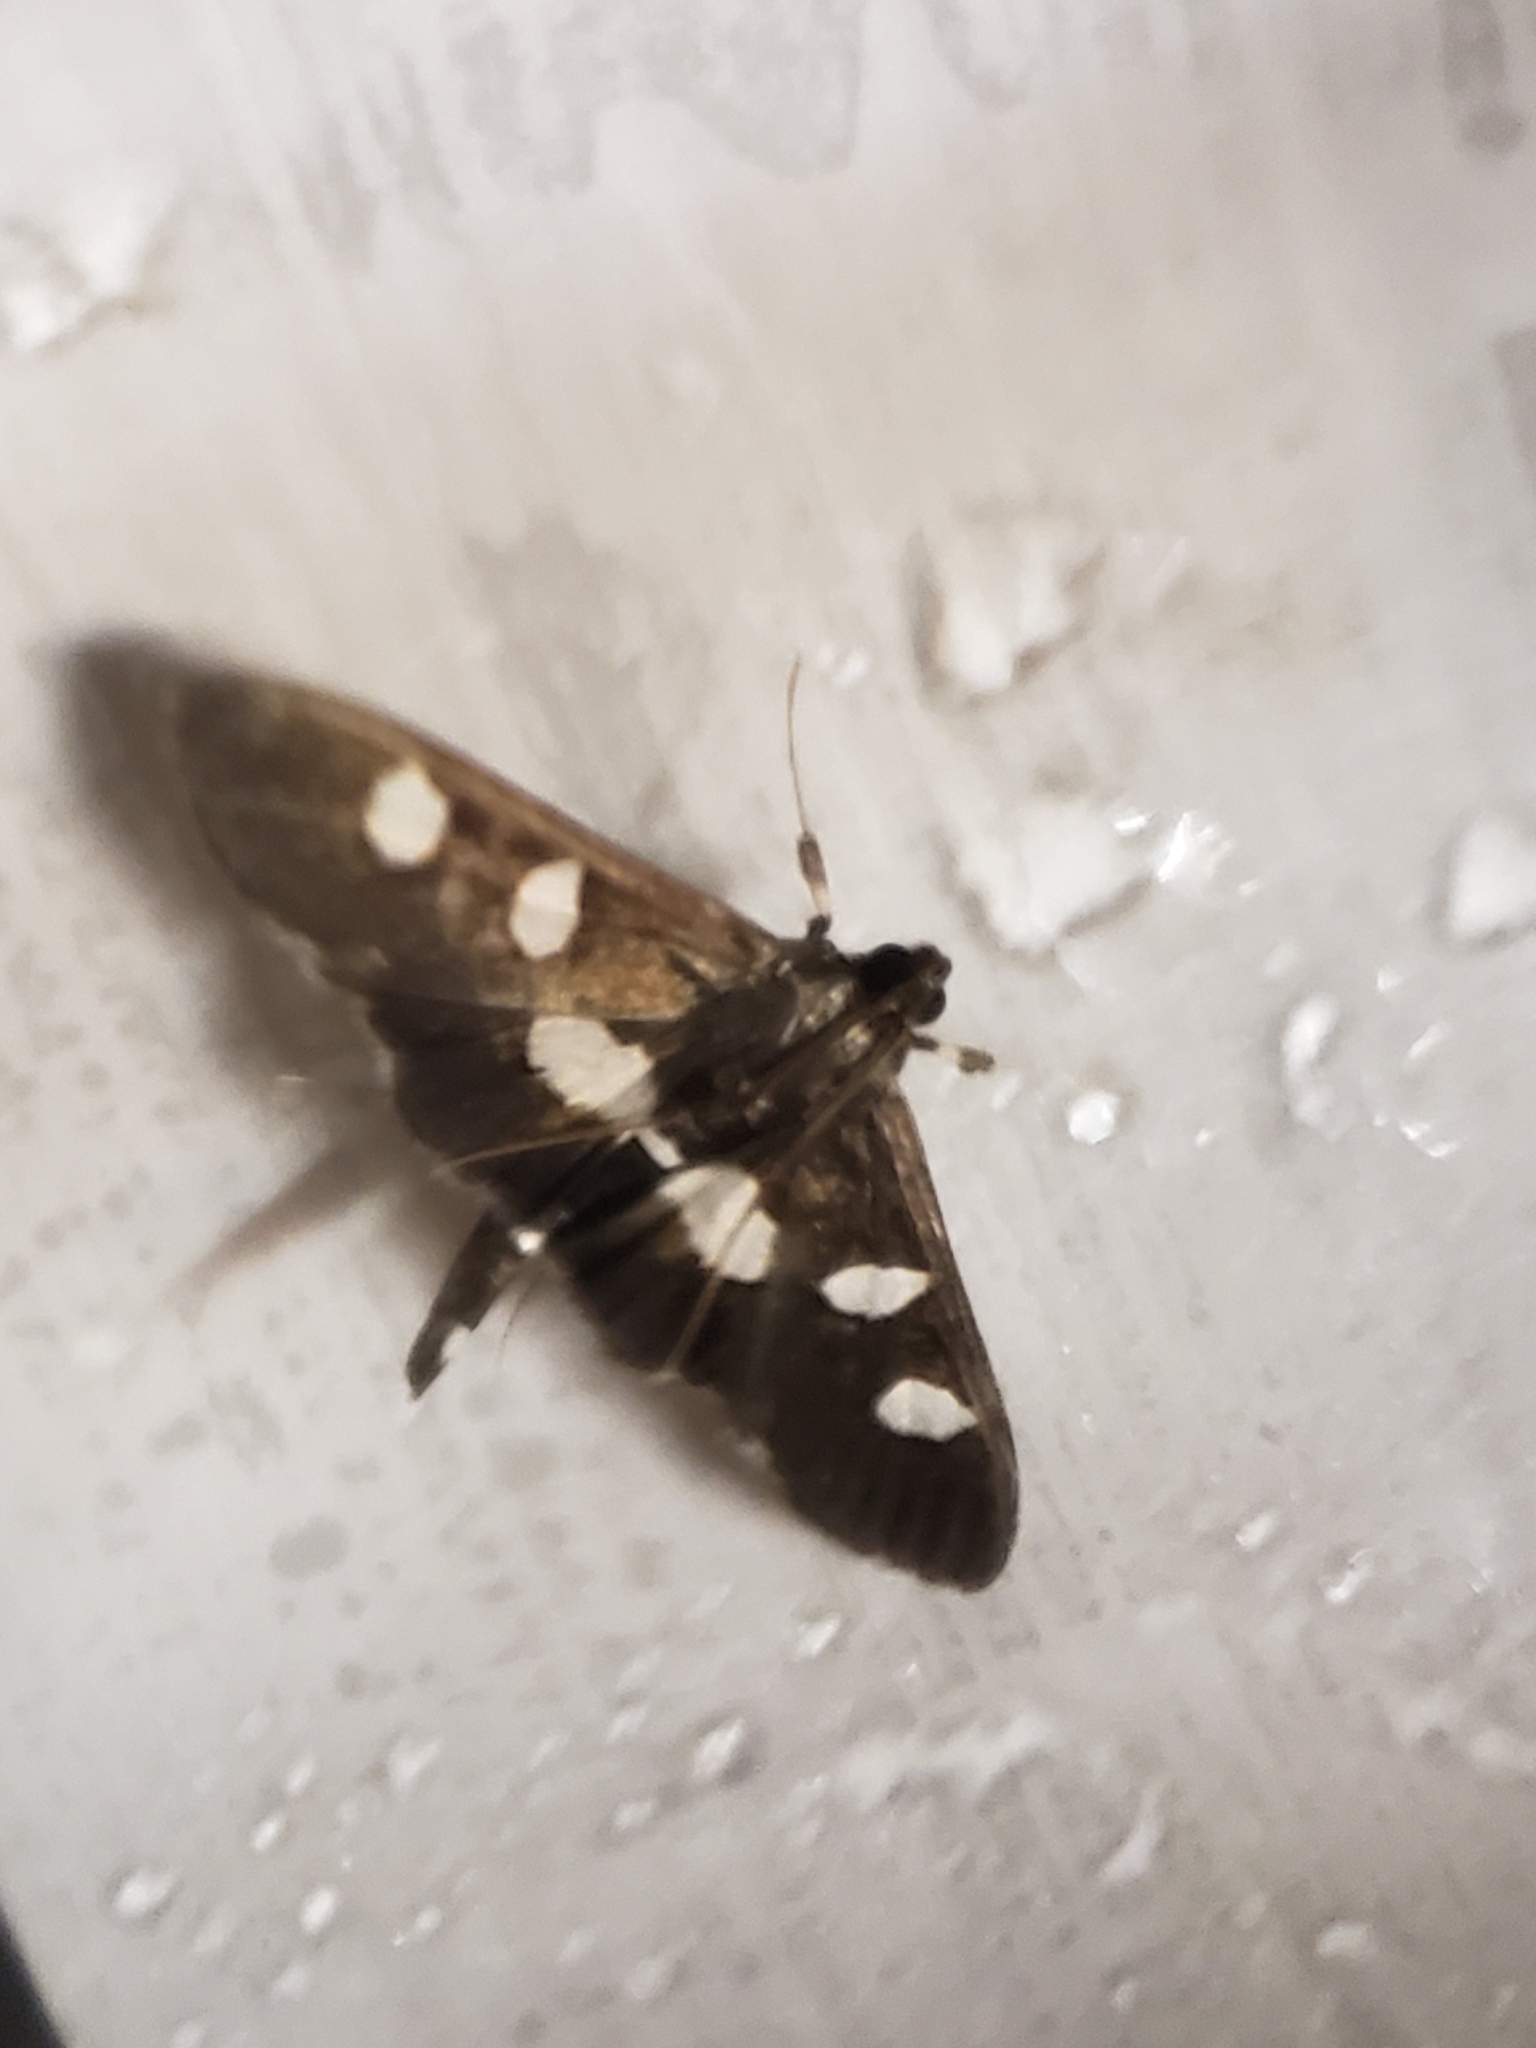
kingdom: Animalia
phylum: Arthropoda
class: Insecta
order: Lepidoptera
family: Crambidae
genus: Desmia
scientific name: Desmia
